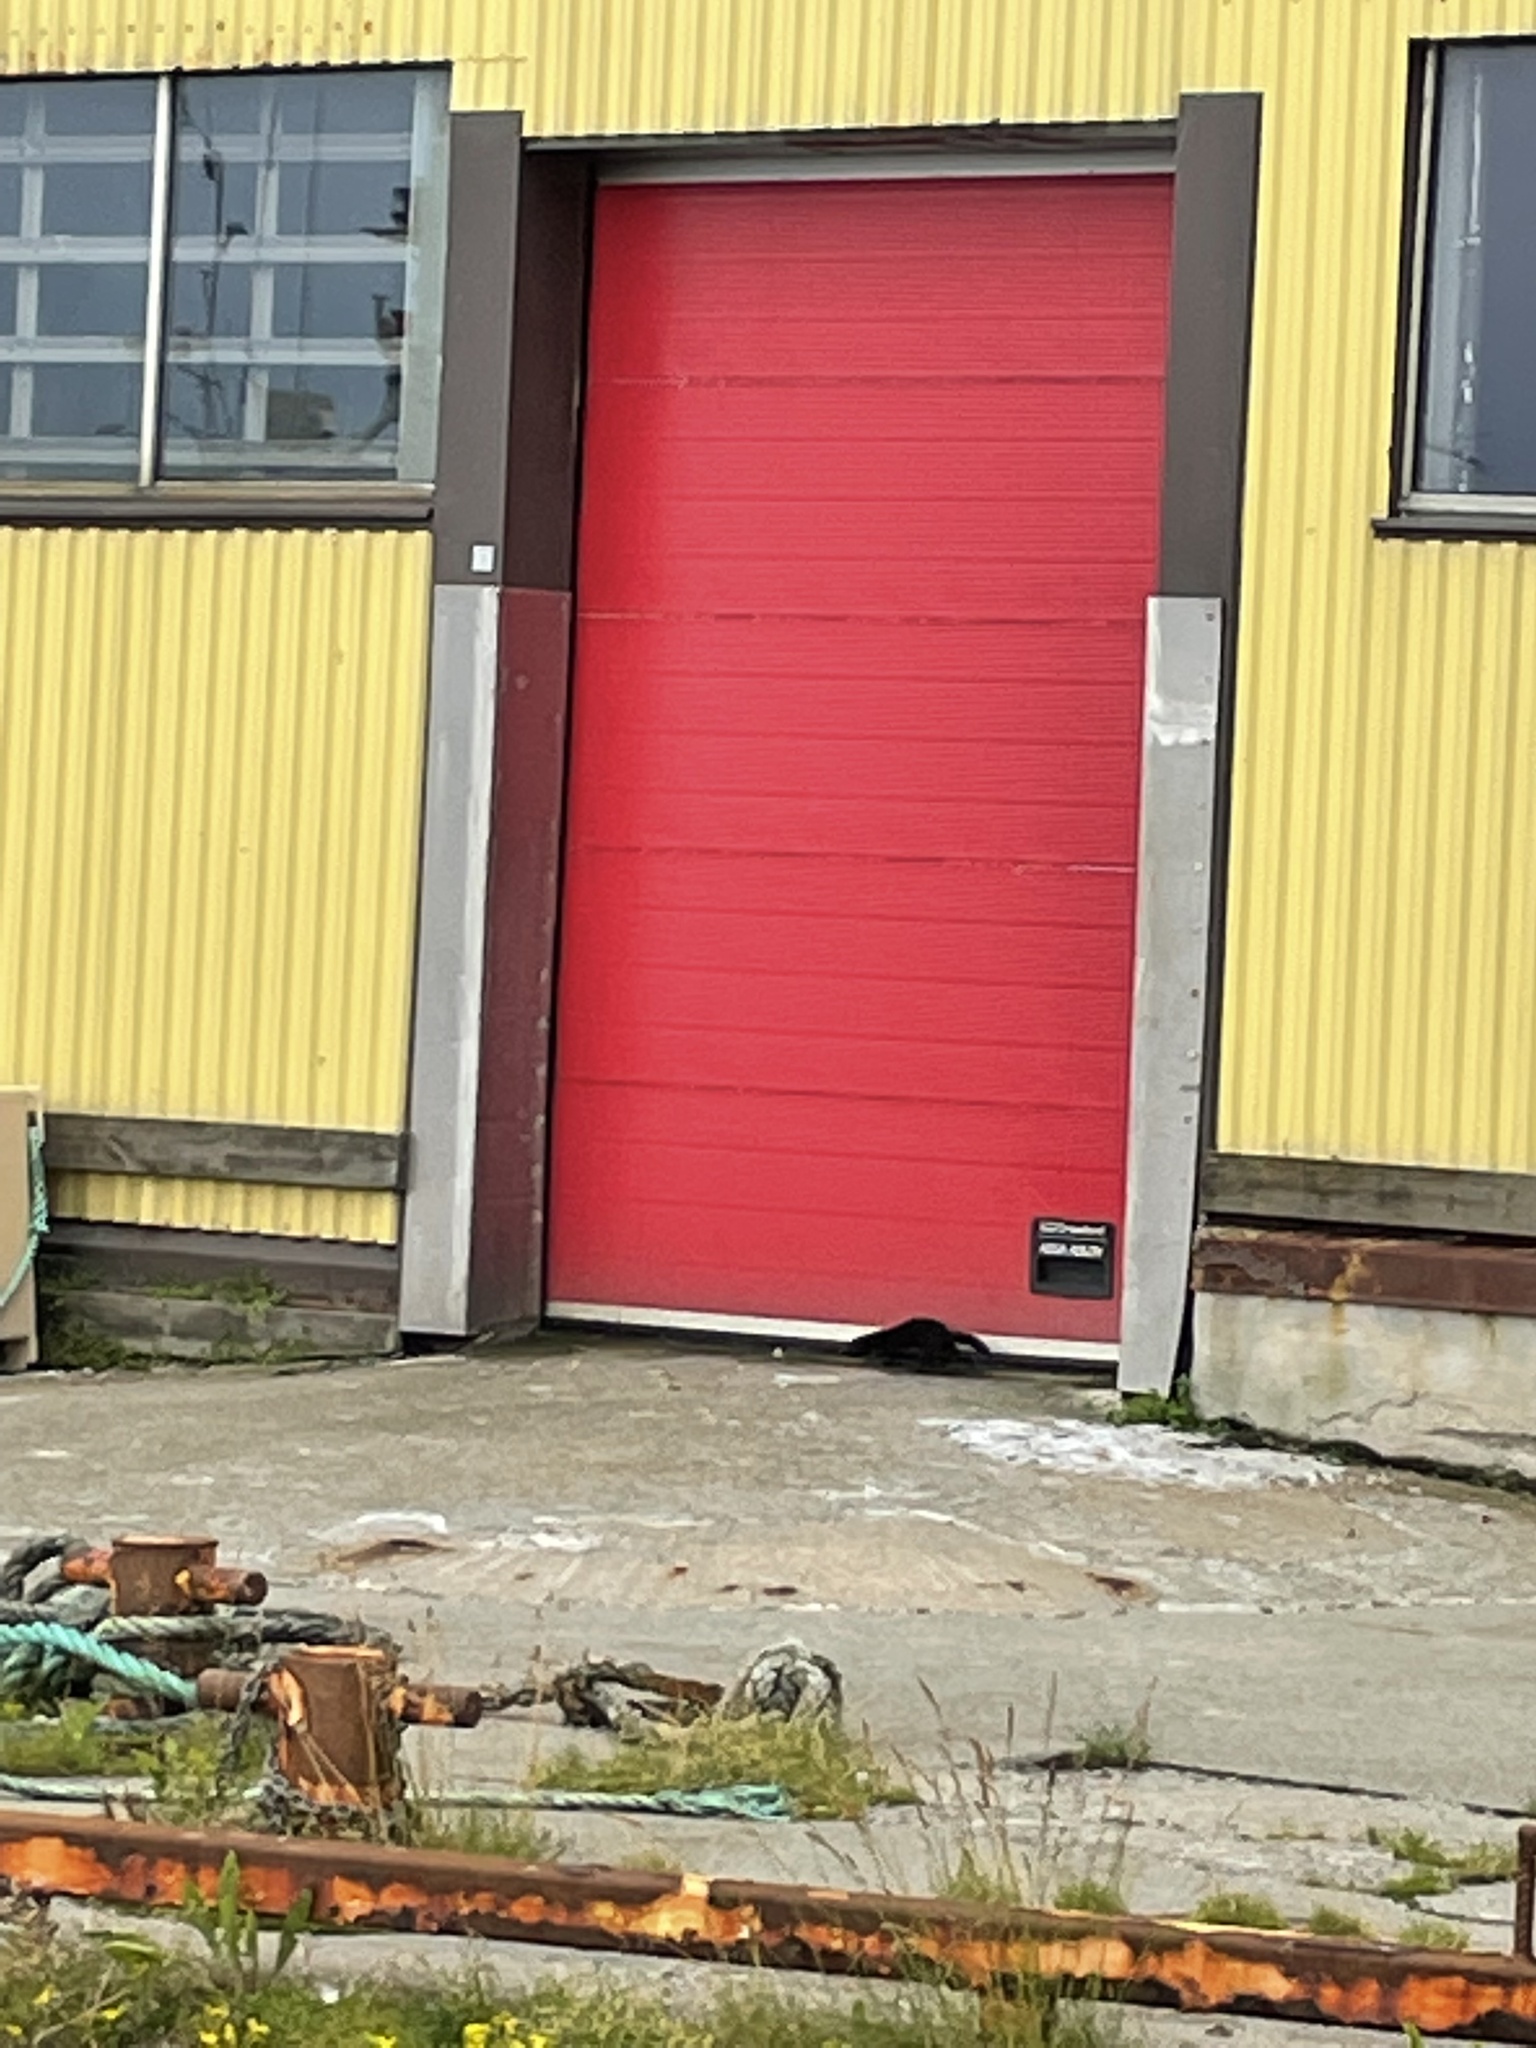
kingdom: Animalia
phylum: Chordata
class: Mammalia
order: Carnivora
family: Mustelidae
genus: Mustela
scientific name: Mustela
